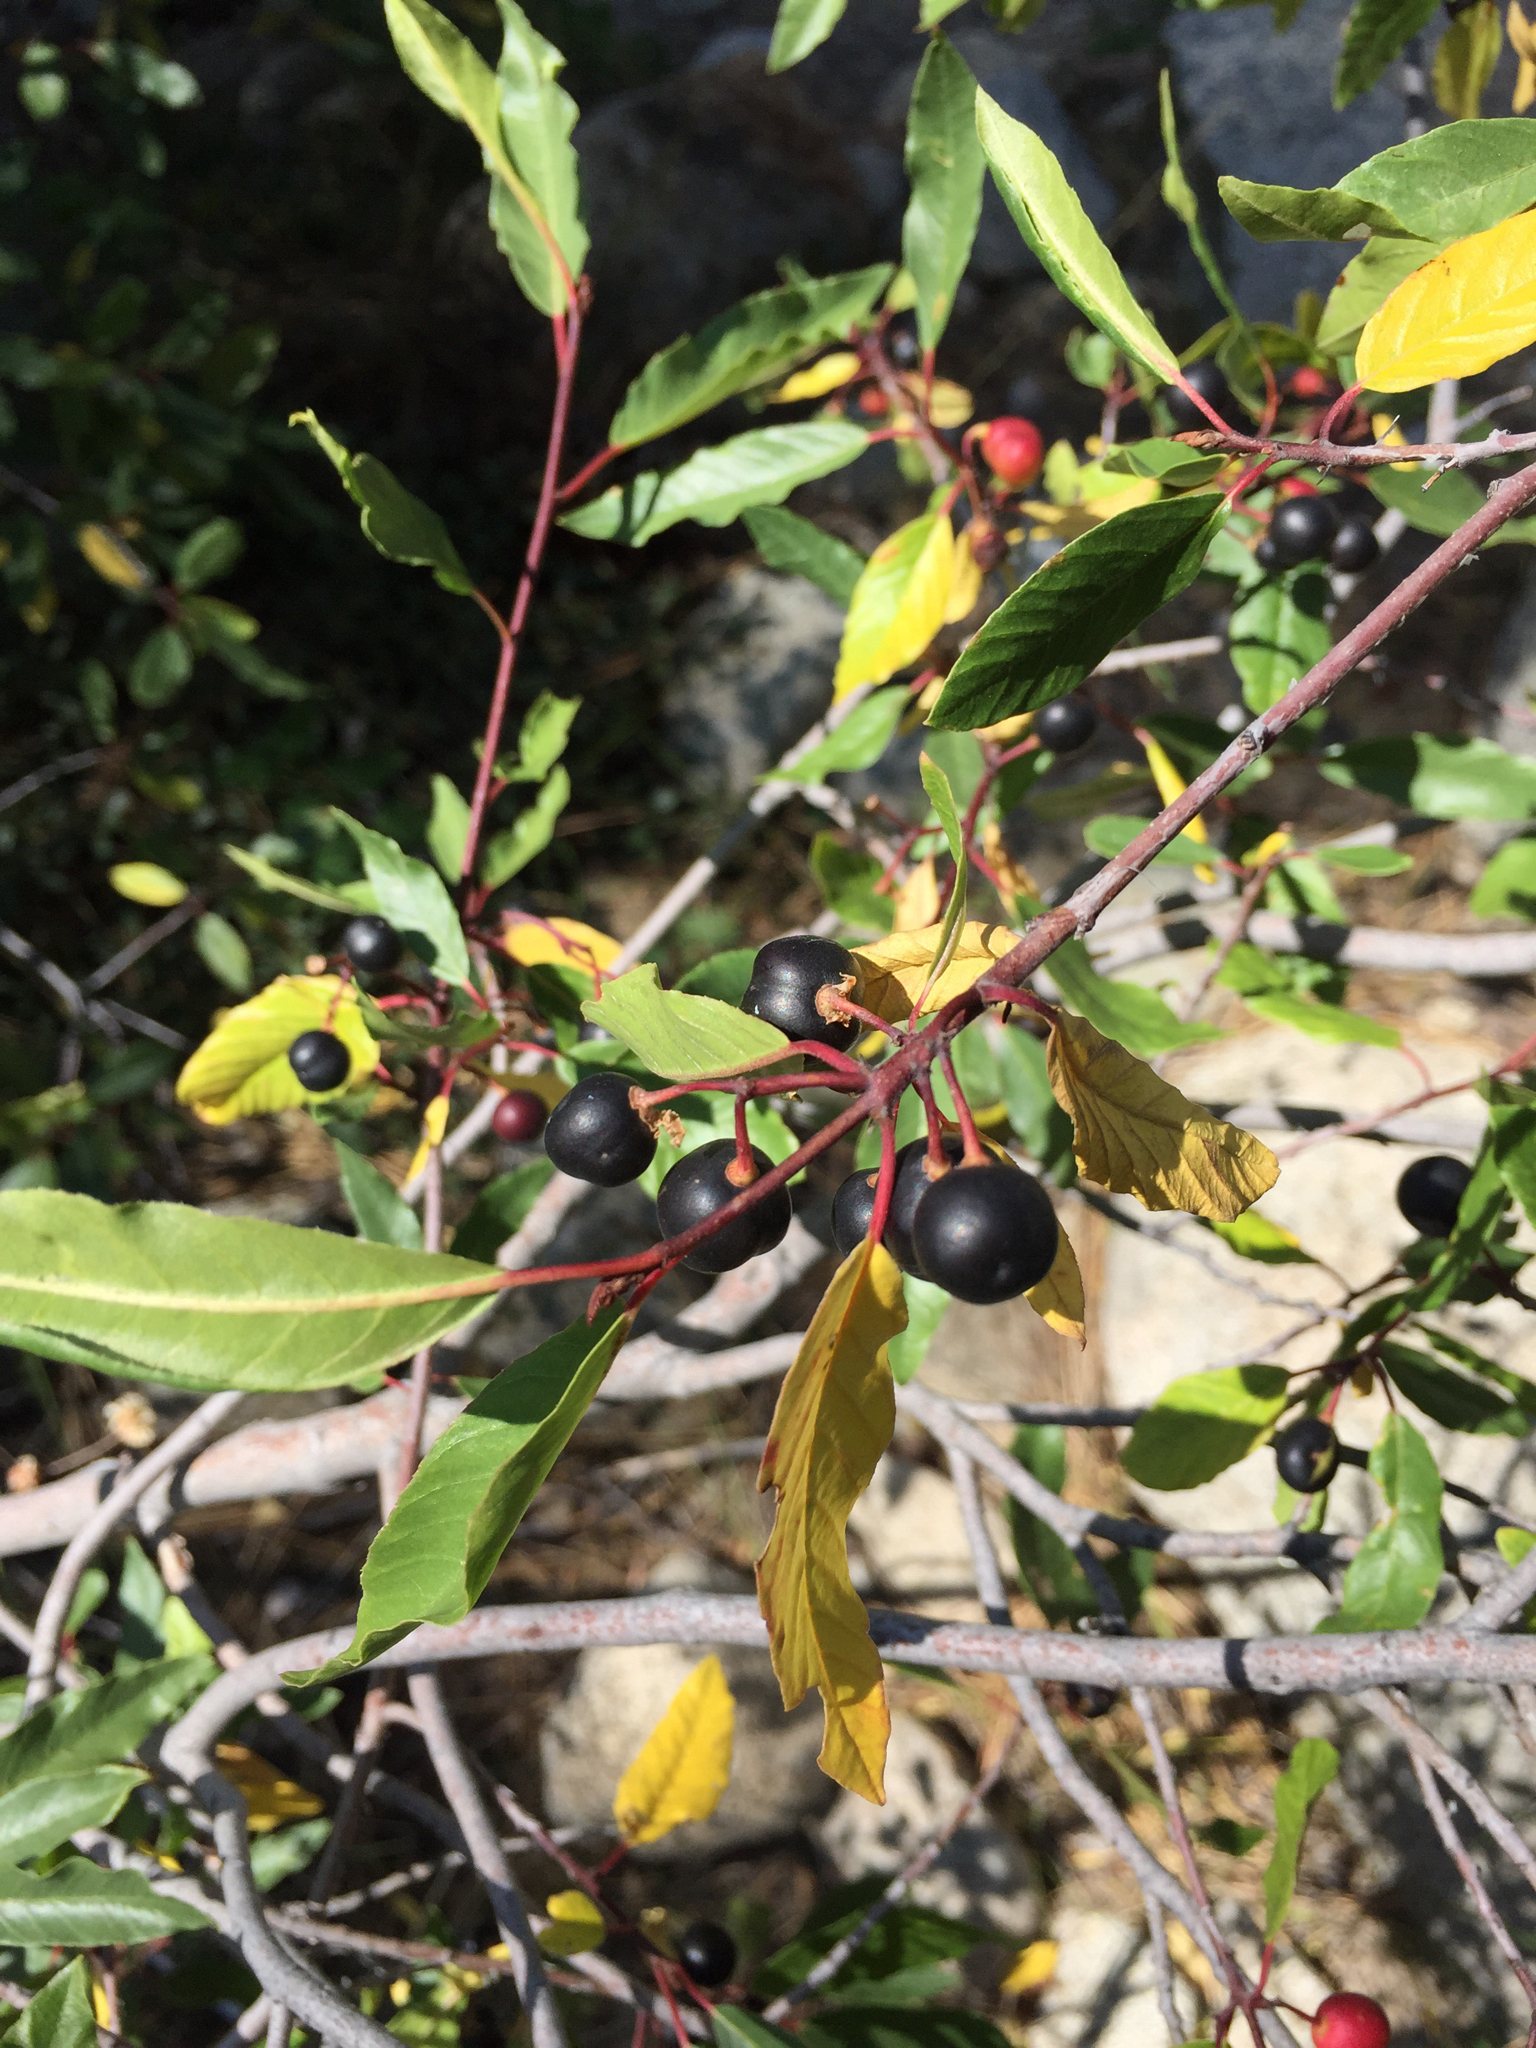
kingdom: Plantae
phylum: Tracheophyta
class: Magnoliopsida
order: Rosales
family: Rhamnaceae
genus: Frangula
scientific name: Frangula rubra
